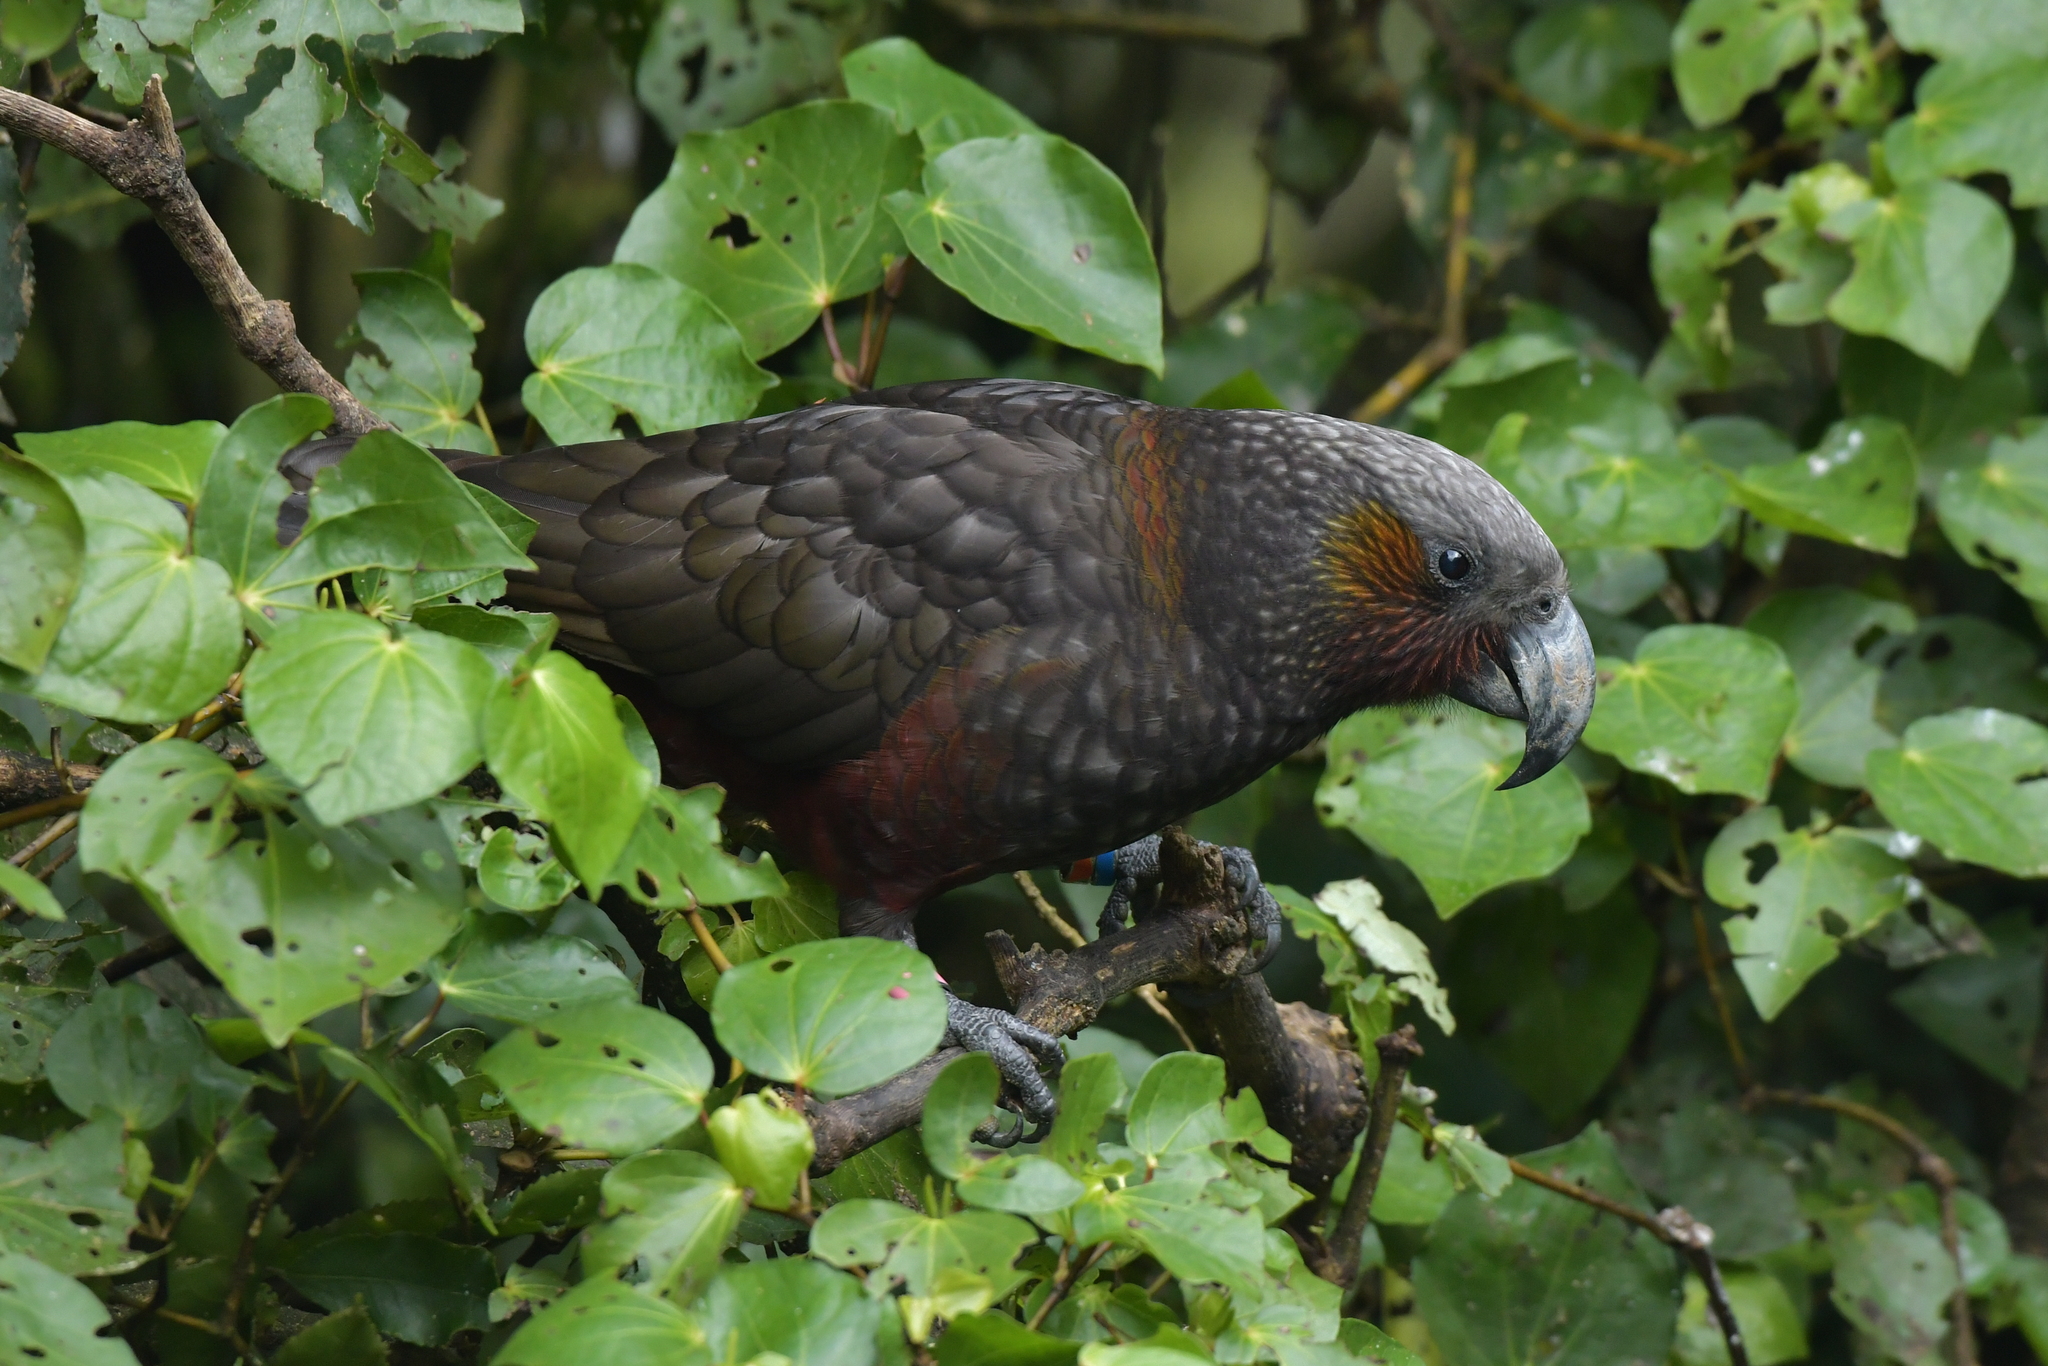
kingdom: Animalia
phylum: Chordata
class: Aves
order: Psittaciformes
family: Psittacidae
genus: Nestor
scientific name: Nestor meridionalis
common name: New zealand kaka
